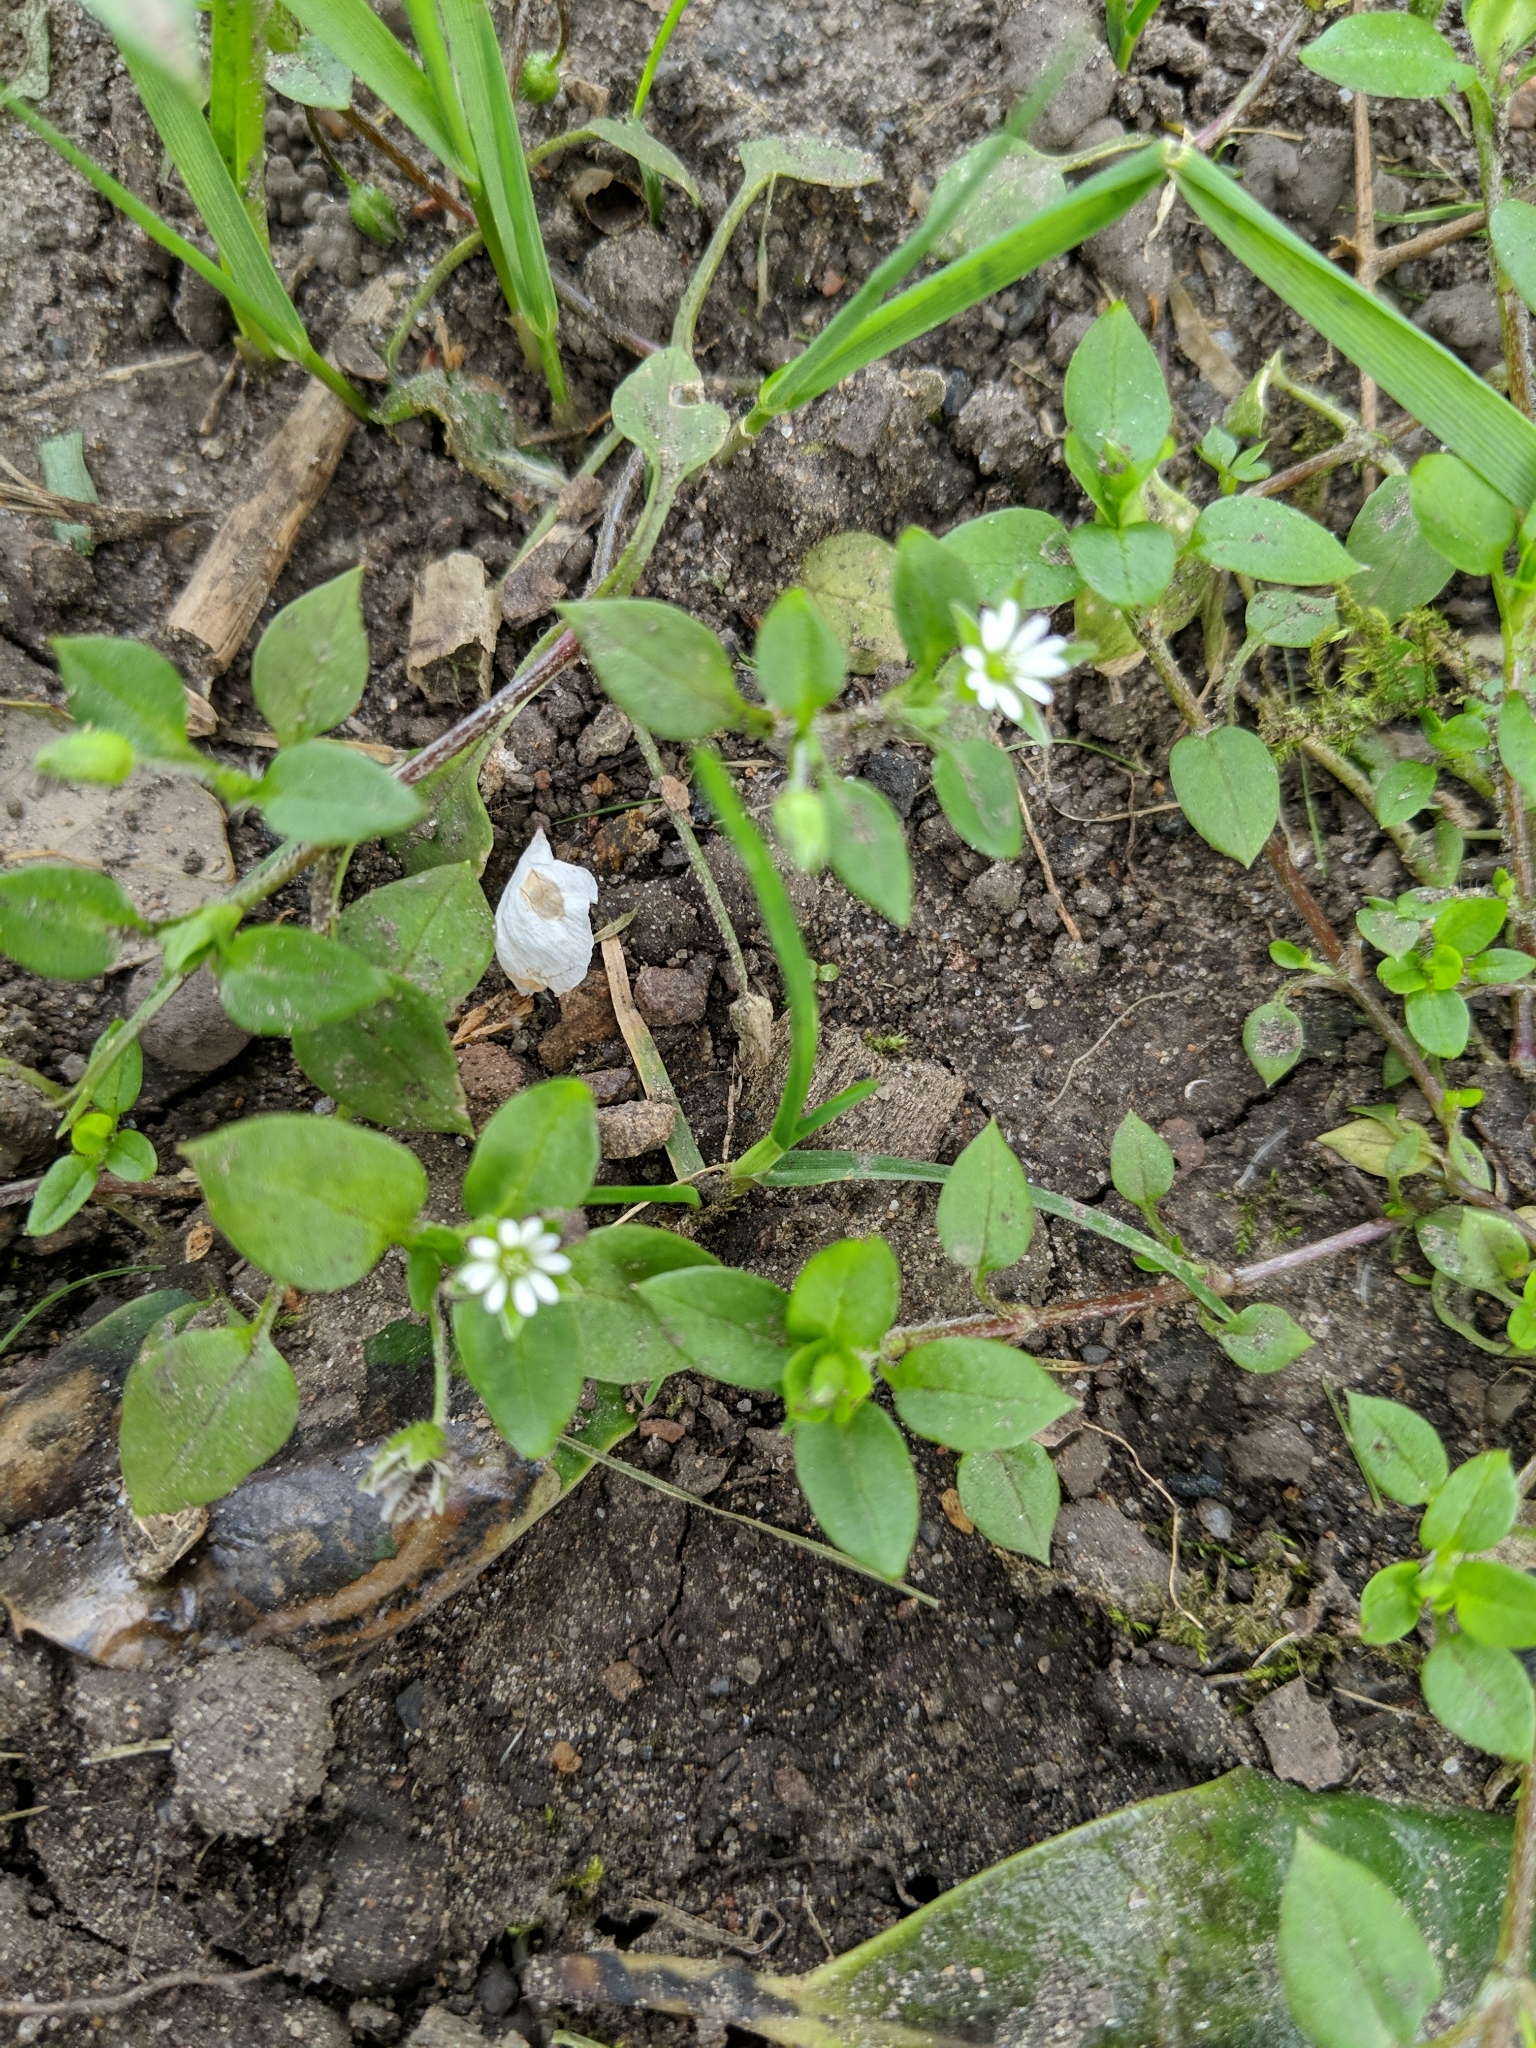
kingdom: Plantae
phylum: Tracheophyta
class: Magnoliopsida
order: Caryophyllales
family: Caryophyllaceae
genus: Stellaria
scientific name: Stellaria media
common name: Common chickweed
